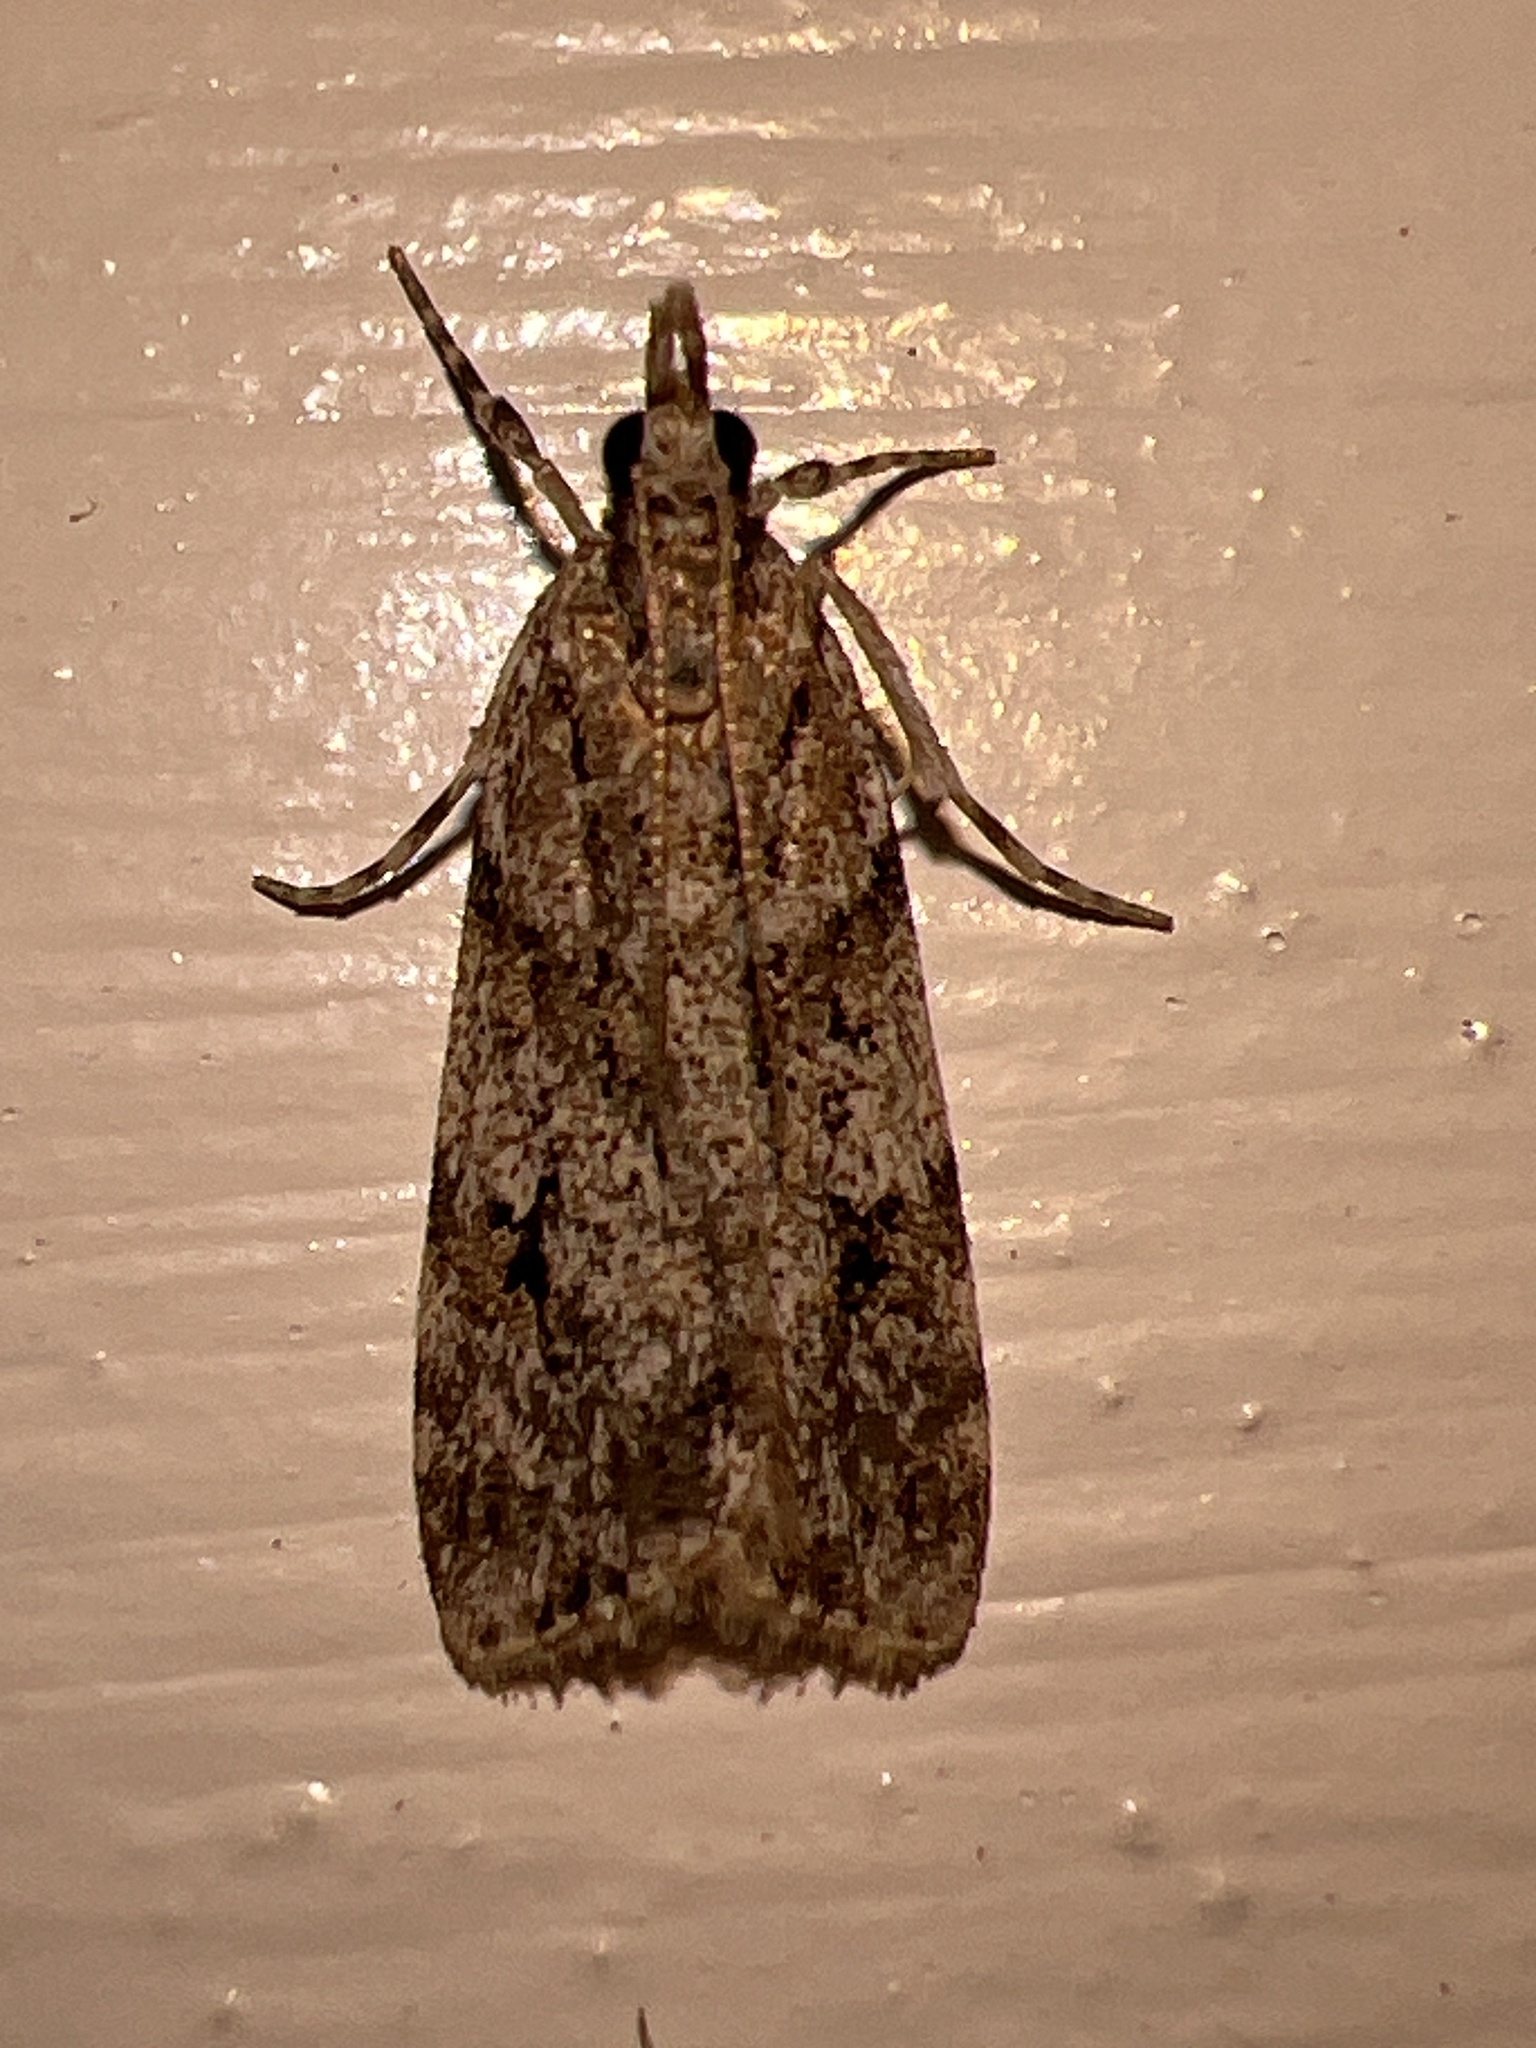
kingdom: Animalia
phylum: Arthropoda
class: Insecta
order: Lepidoptera
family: Crambidae
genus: Scoparia
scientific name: Scoparia biplagialis
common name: Double-striped scoparia moth
